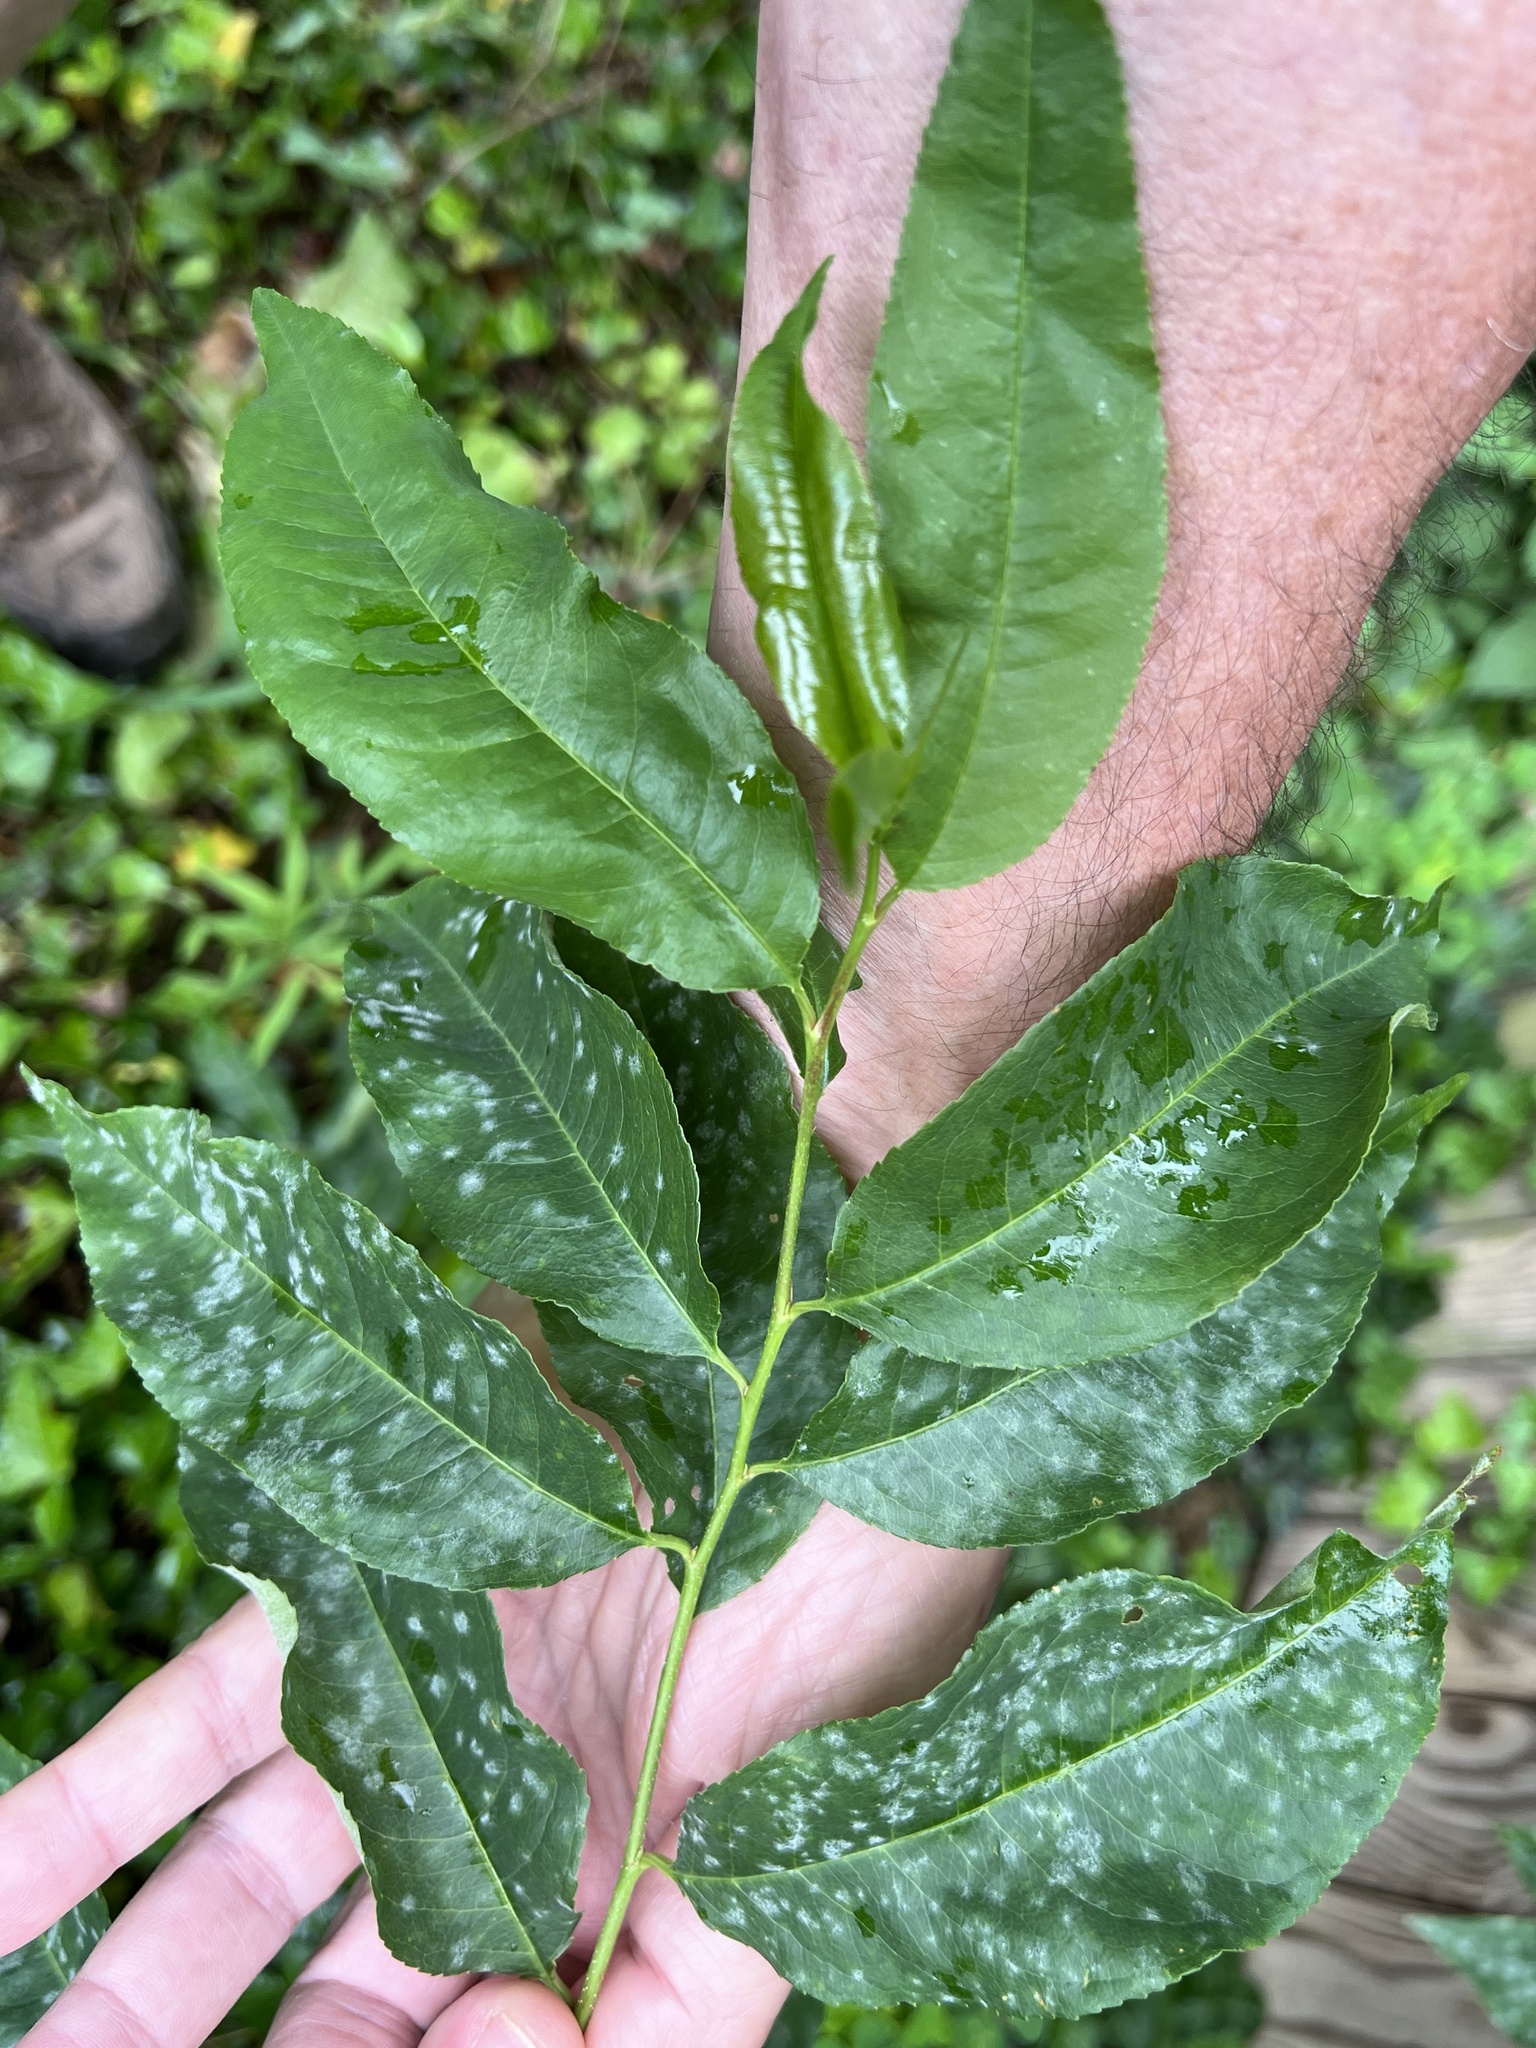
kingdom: Fungi
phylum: Ascomycota
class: Leotiomycetes
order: Helotiales
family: Erysiphaceae
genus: Podosphaera
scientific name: Podosphaera prunicola
